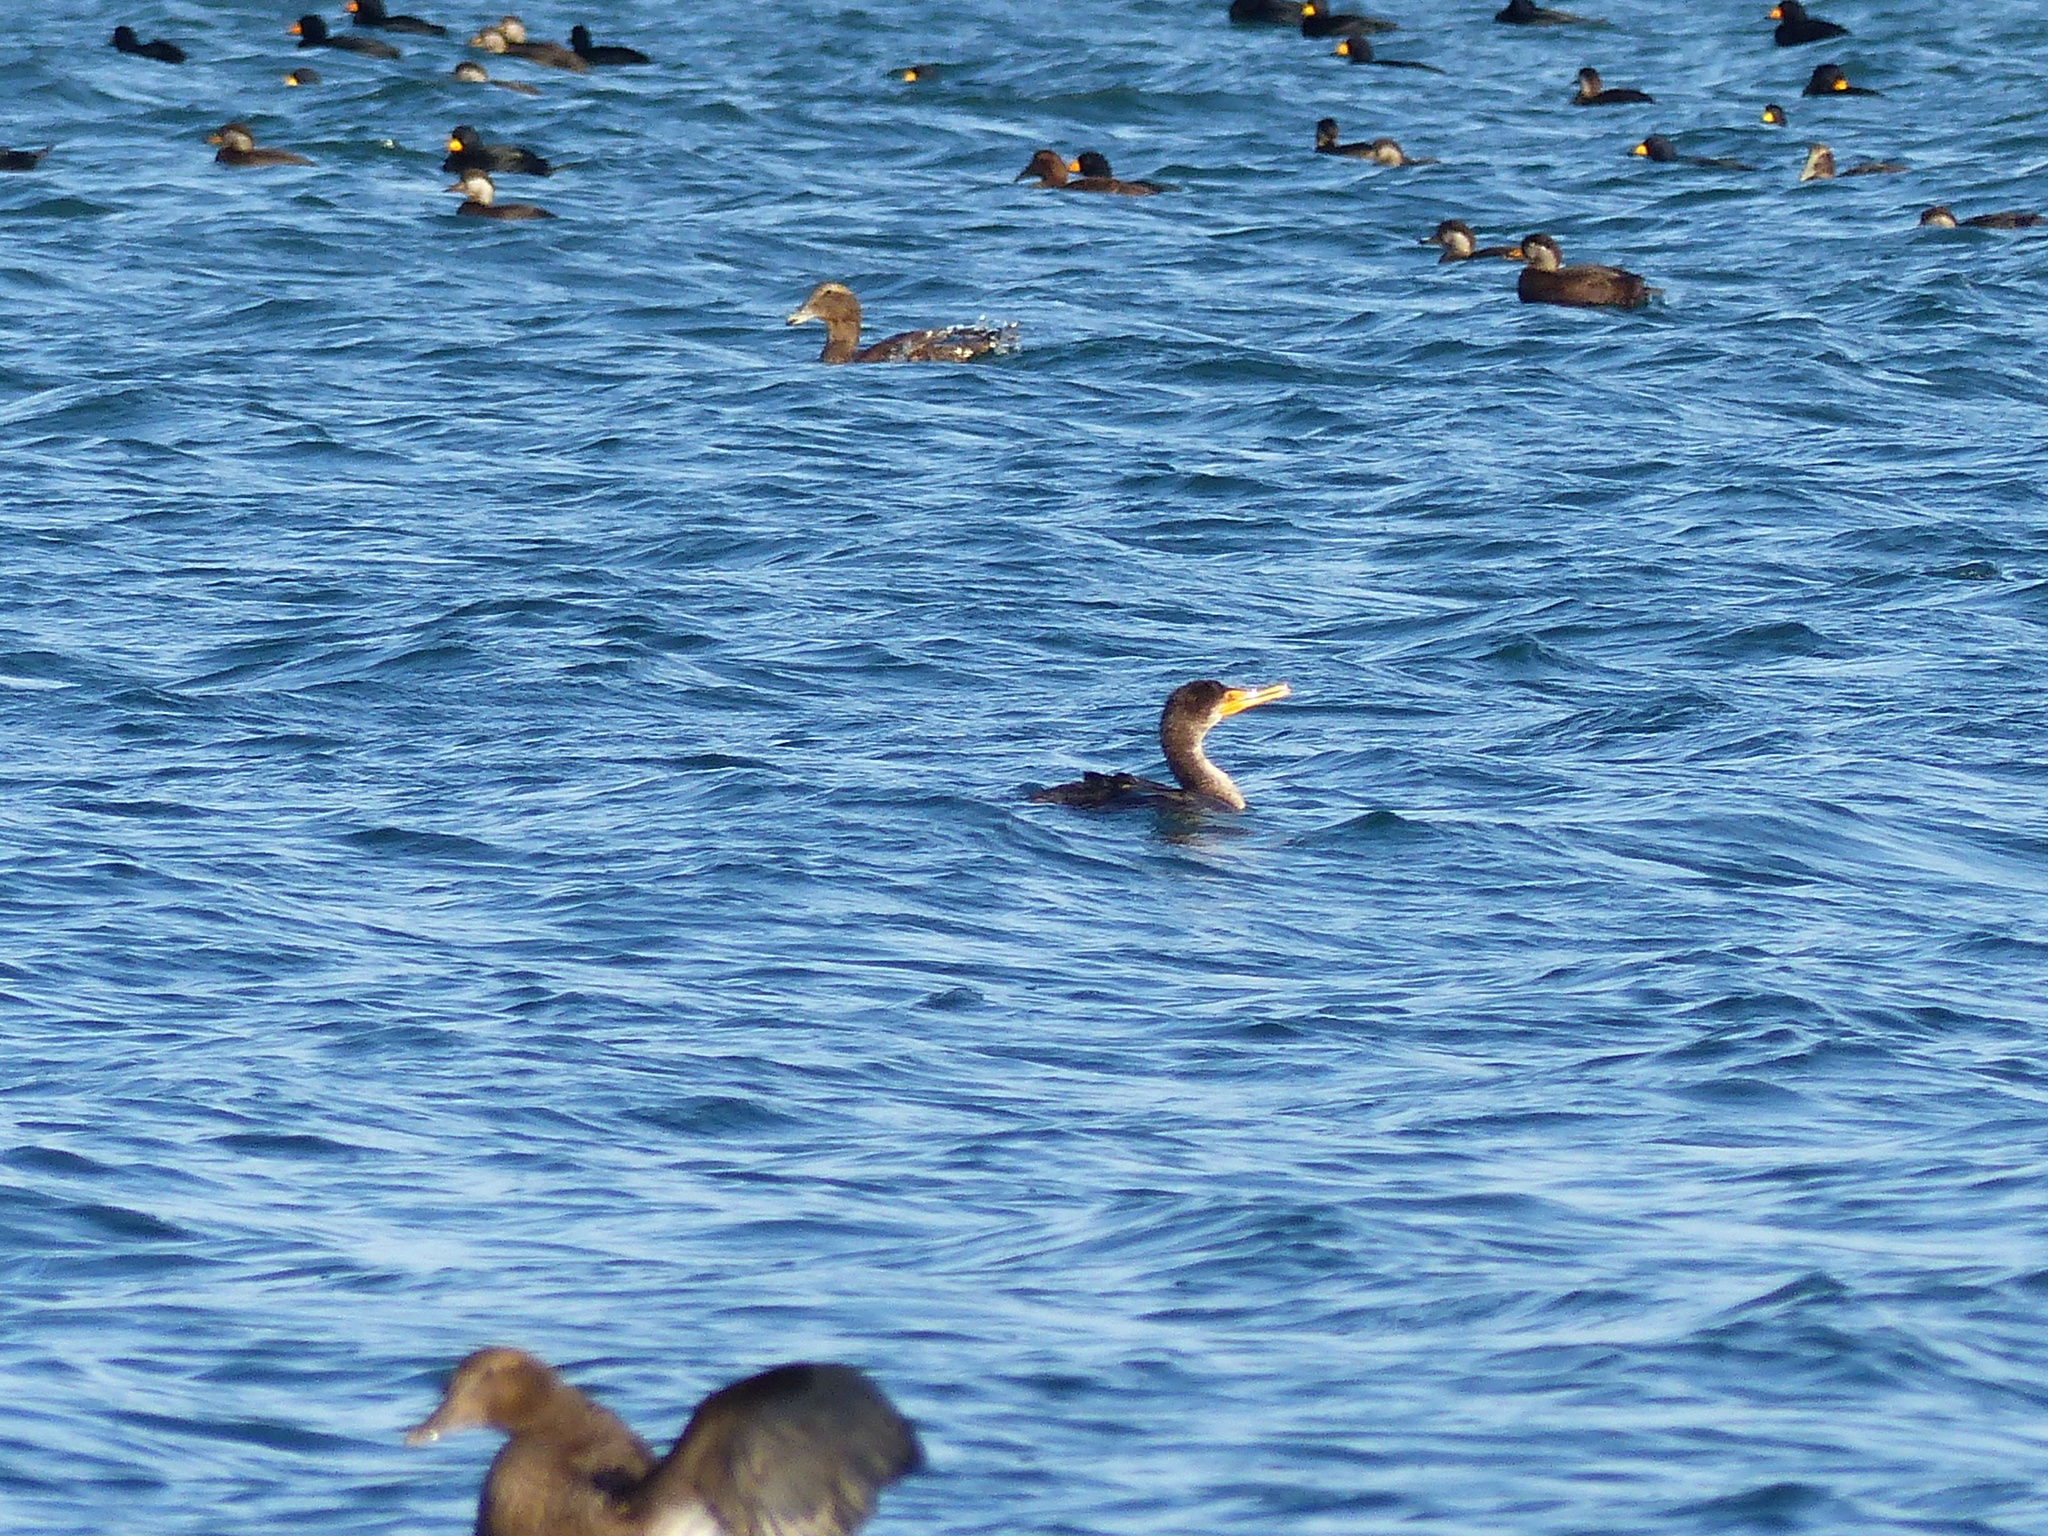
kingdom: Animalia
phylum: Chordata
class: Aves
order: Suliformes
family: Phalacrocoracidae
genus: Phalacrocorax
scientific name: Phalacrocorax auritus
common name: Double-crested cormorant
